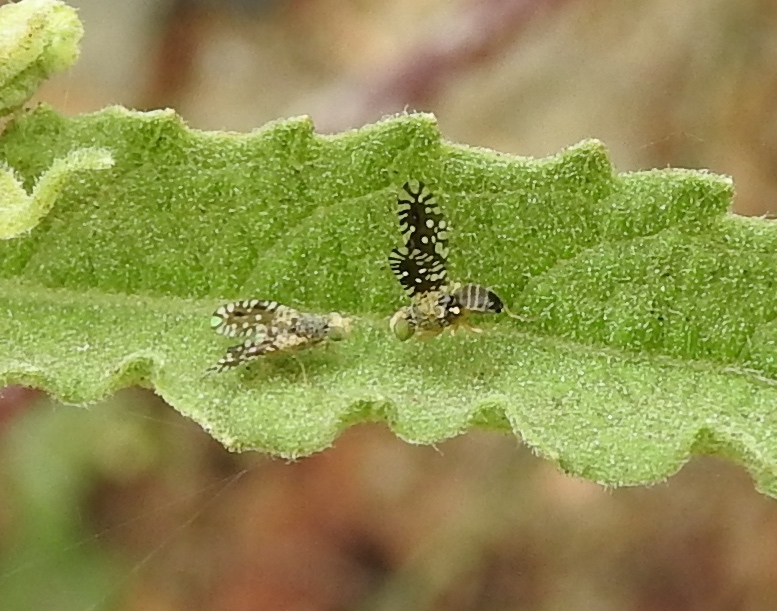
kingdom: Animalia
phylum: Arthropoda
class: Insecta
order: Diptera
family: Tephritidae
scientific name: Tephritidae
